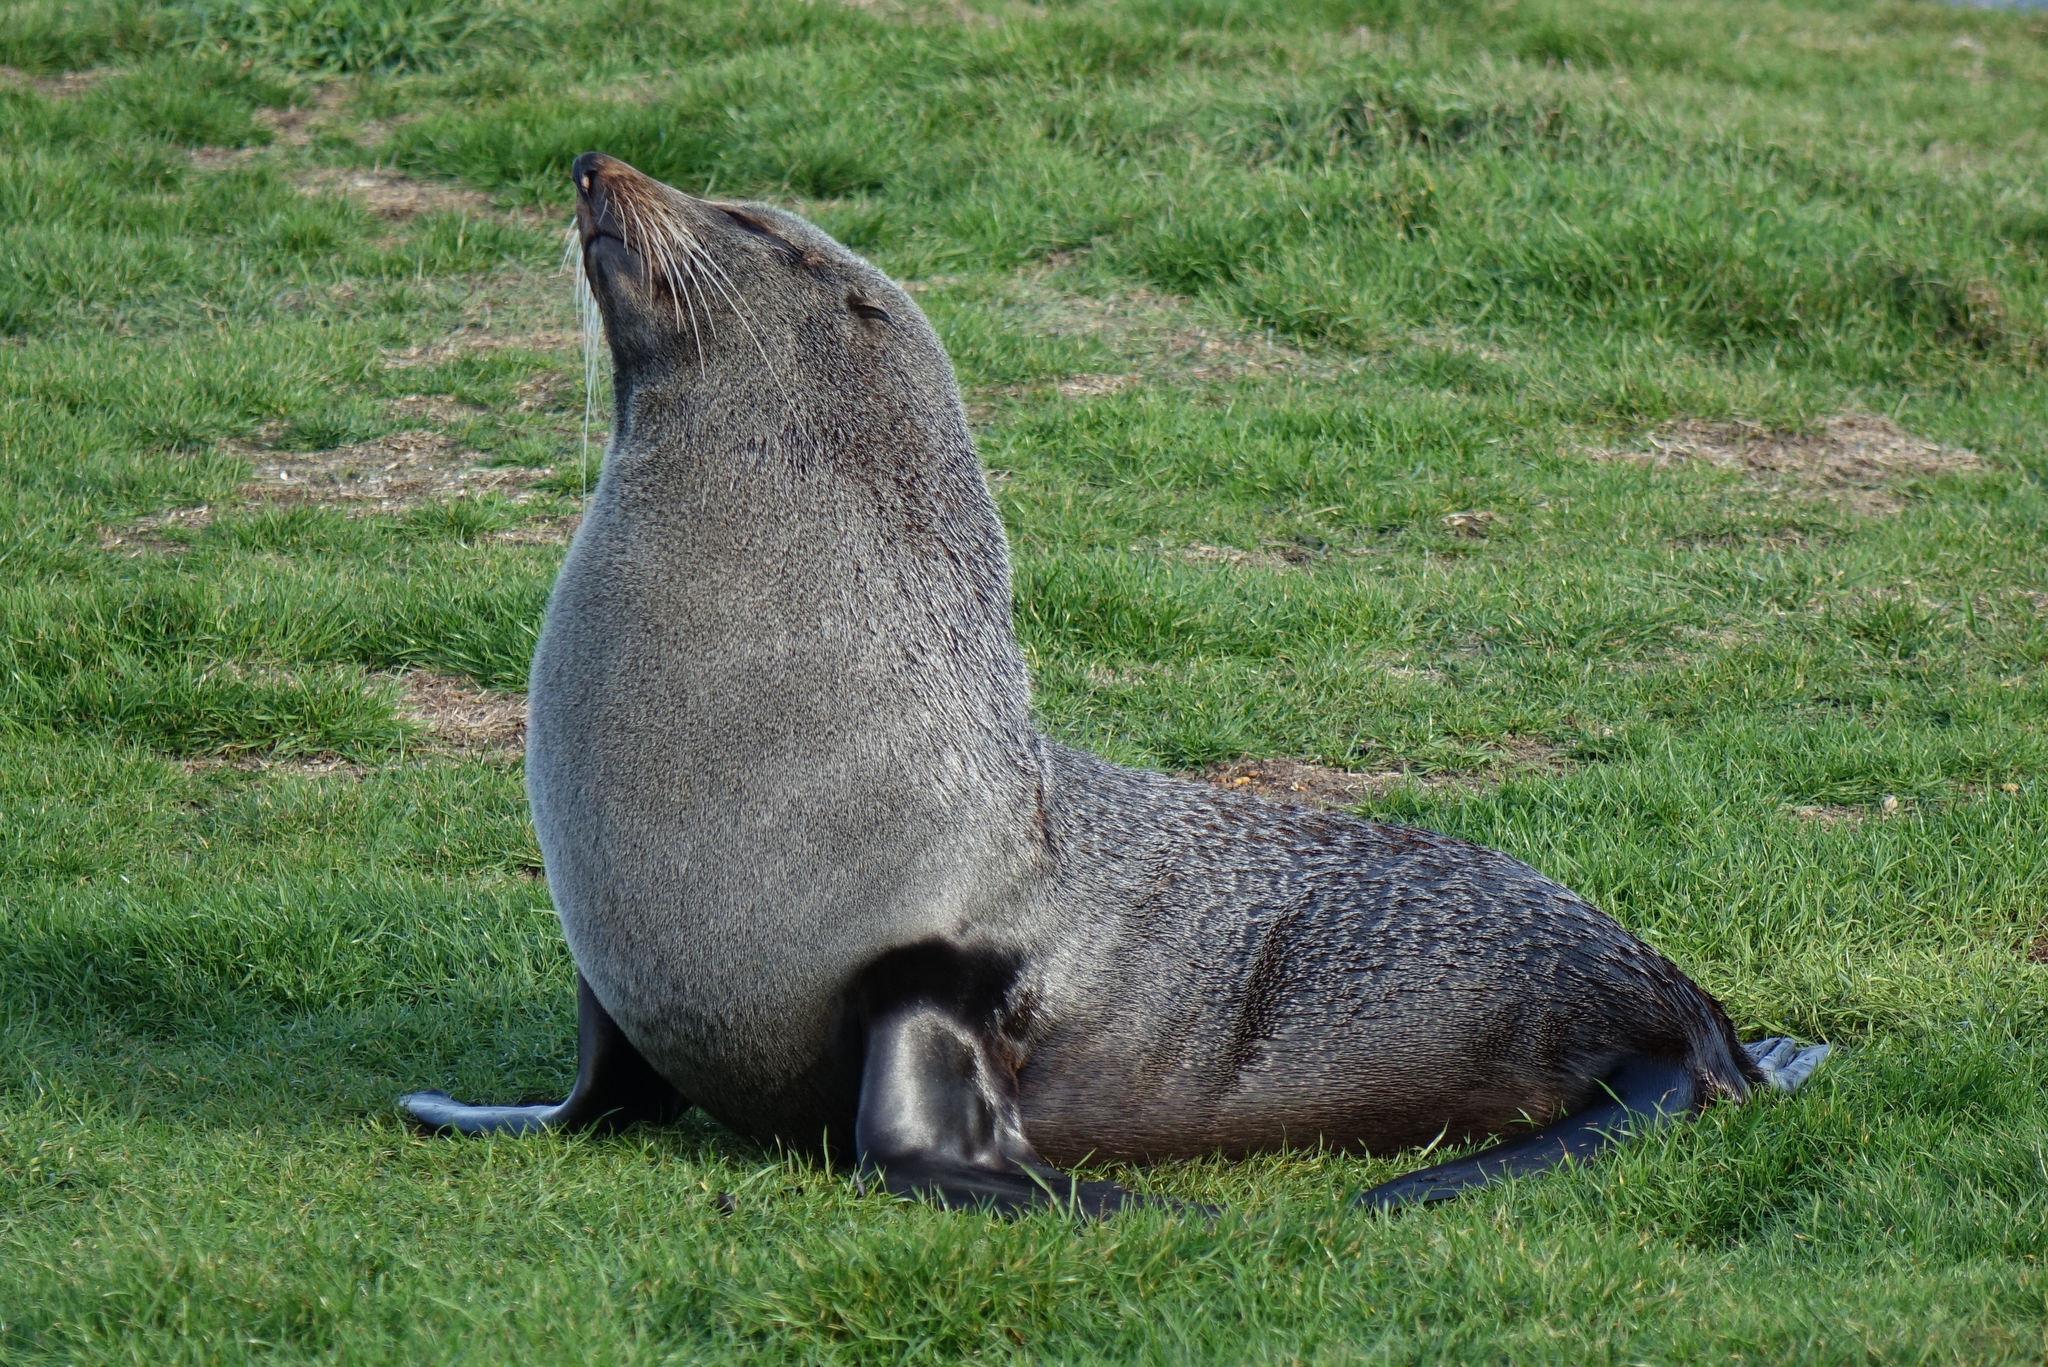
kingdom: Animalia
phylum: Chordata
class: Mammalia
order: Carnivora
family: Otariidae
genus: Arctocephalus
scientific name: Arctocephalus forsteri
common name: New zealand fur seal
